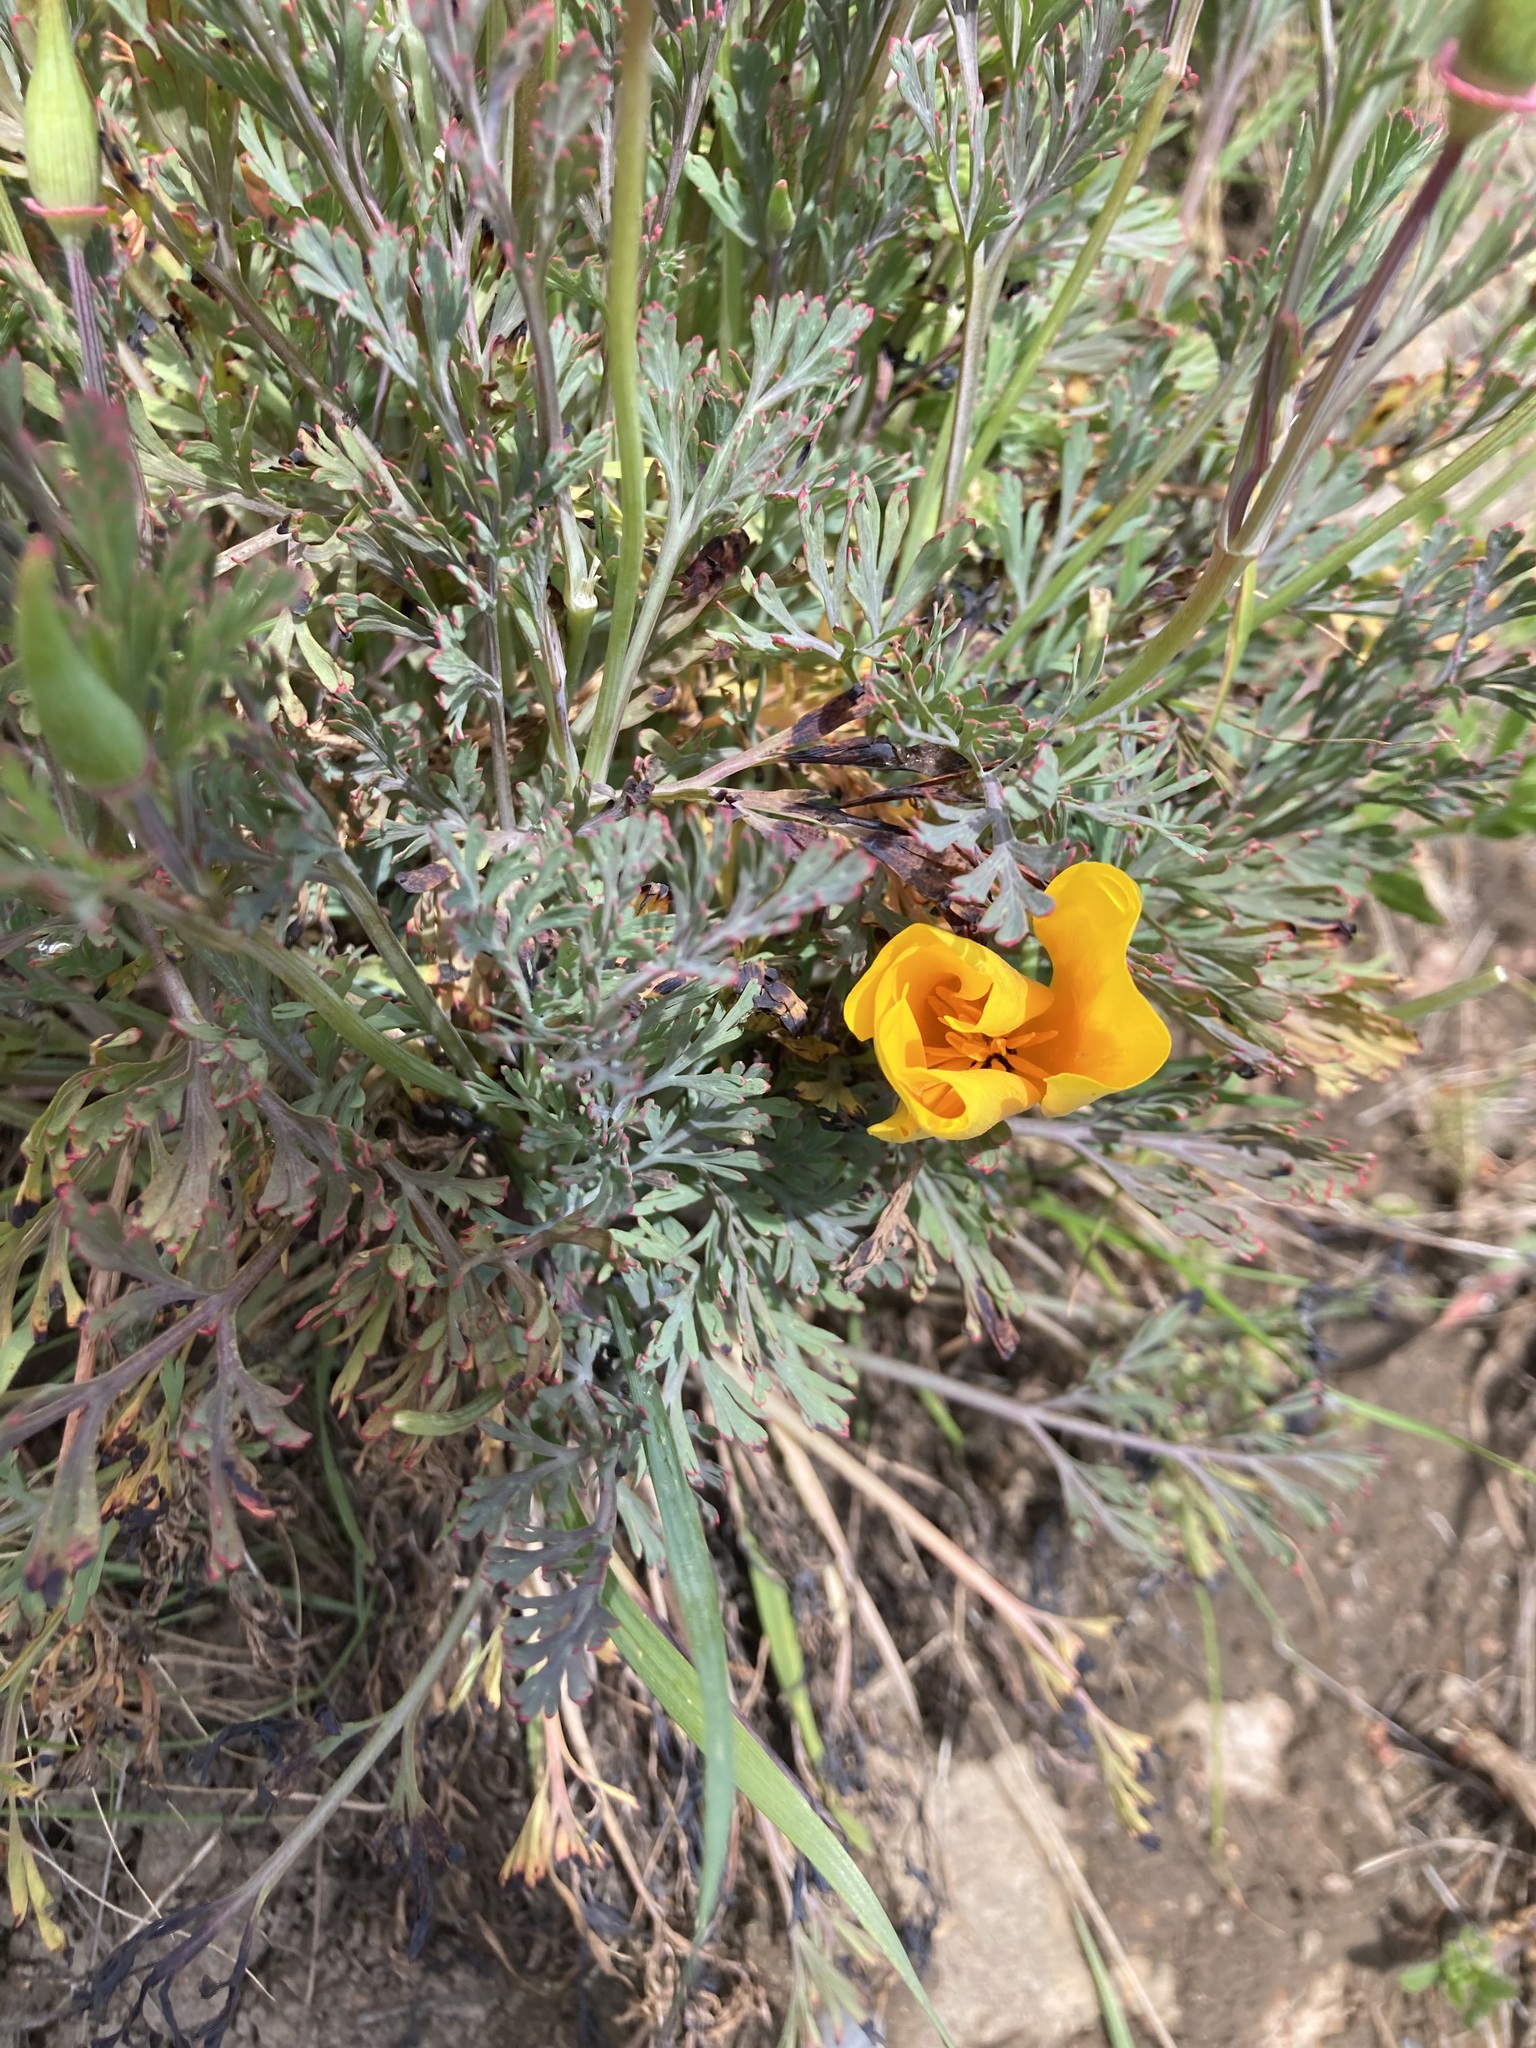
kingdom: Plantae
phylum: Tracheophyta
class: Magnoliopsida
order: Ranunculales
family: Papaveraceae
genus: Eschscholzia
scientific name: Eschscholzia californica
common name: California poppy
